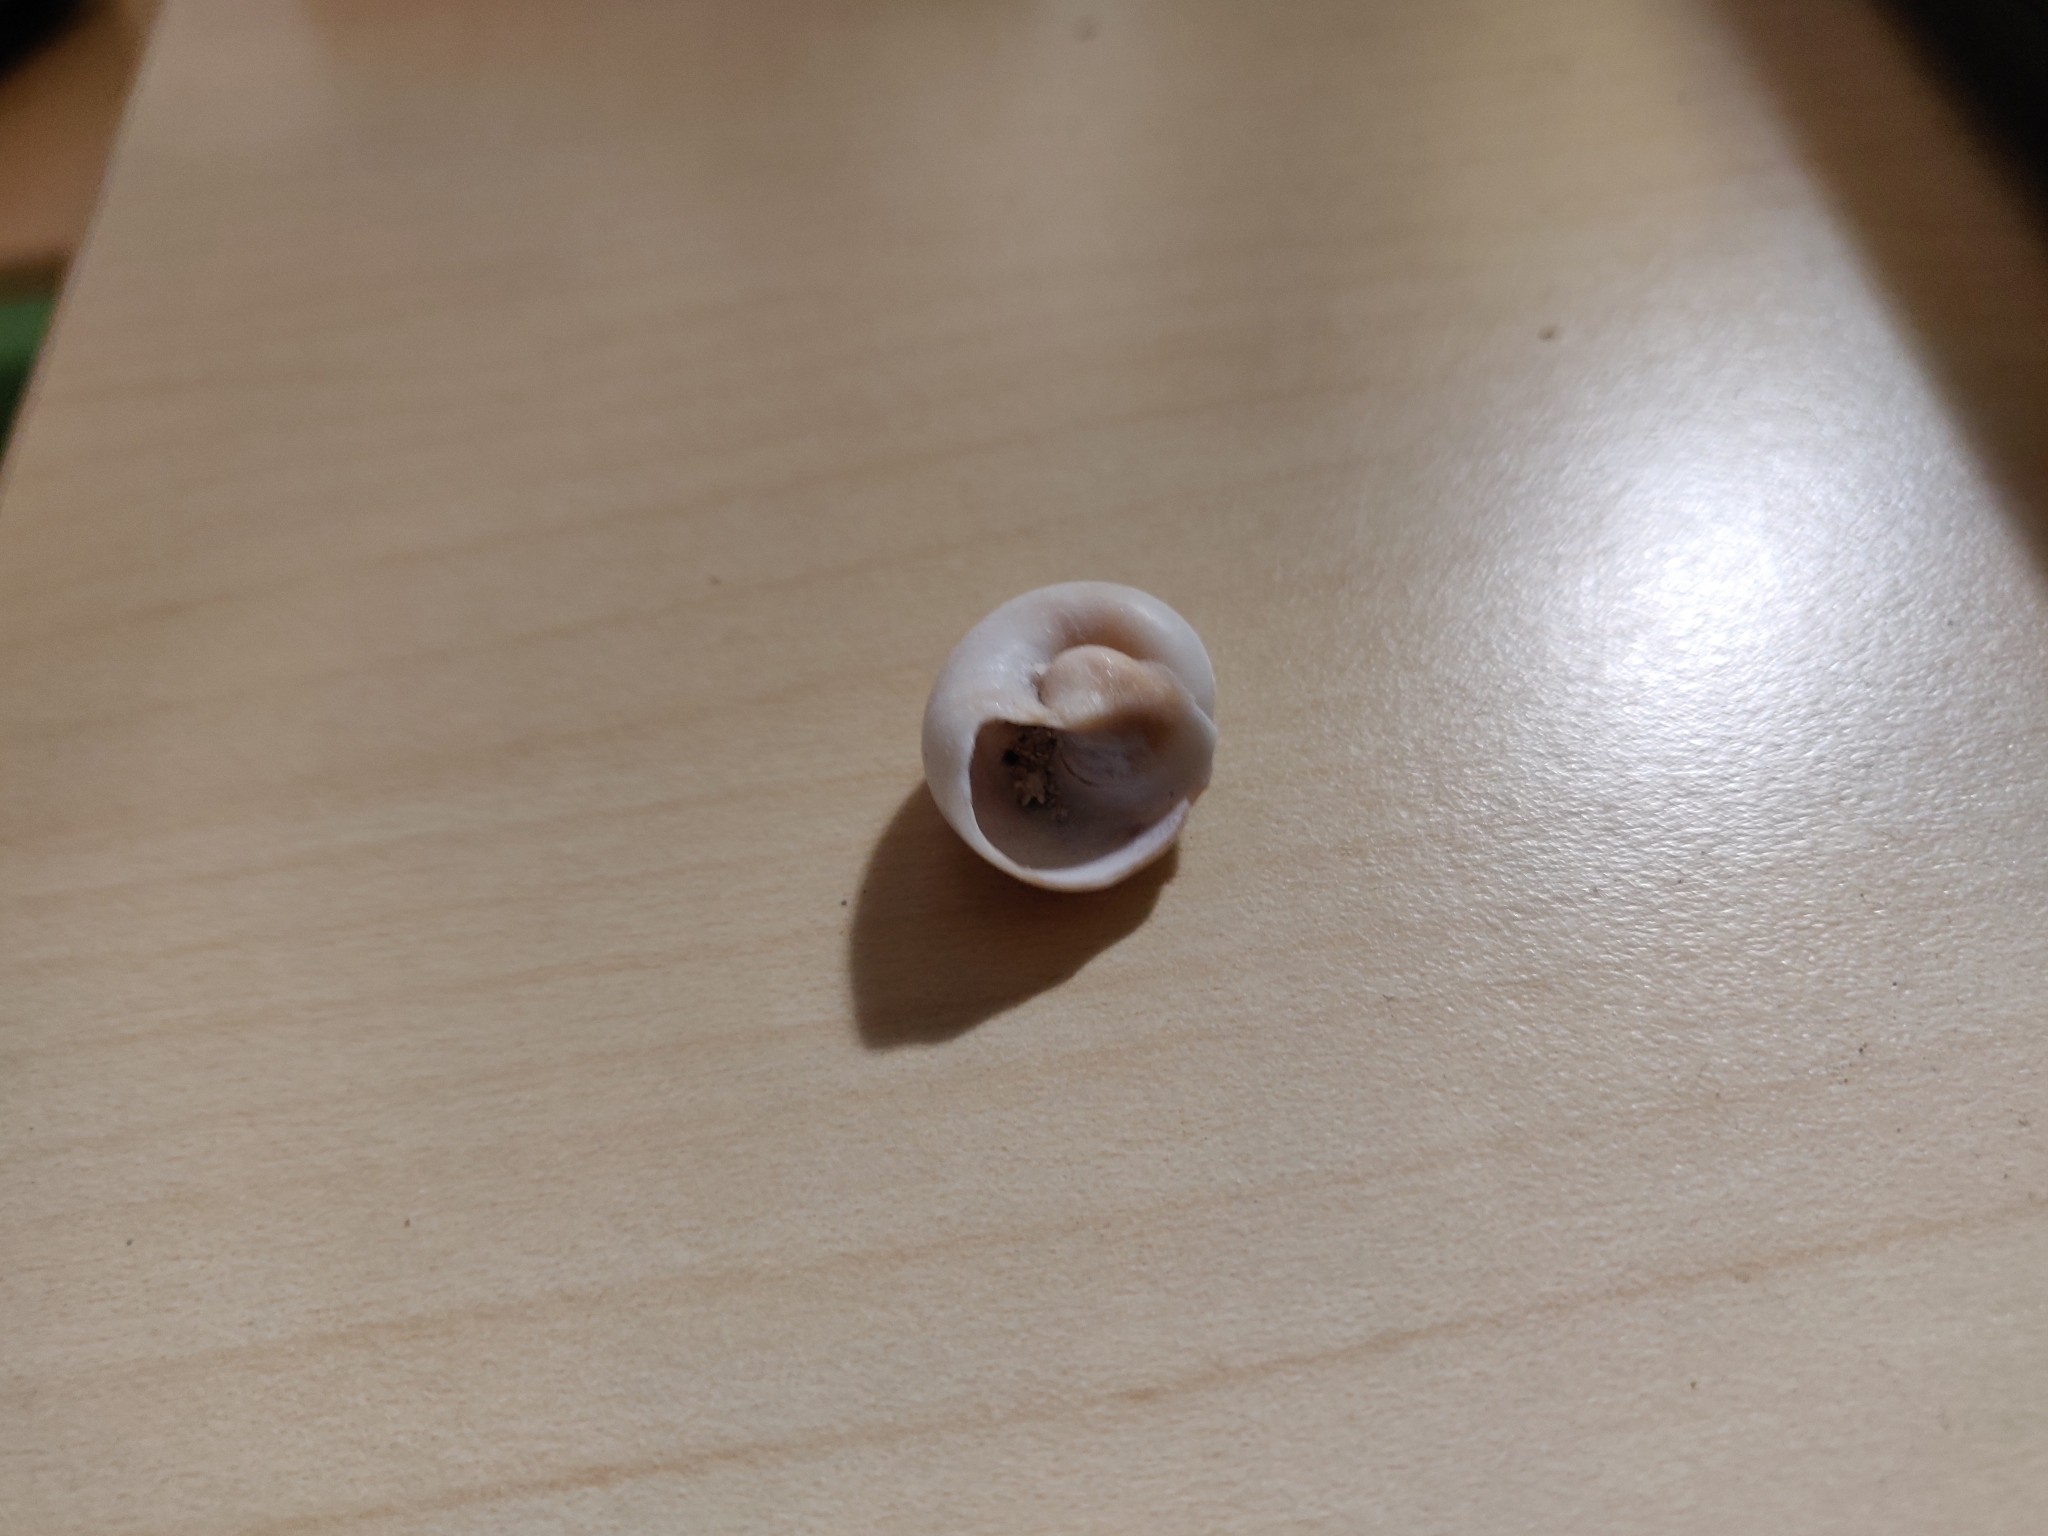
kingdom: Animalia
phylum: Mollusca
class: Gastropoda
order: Littorinimorpha
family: Naticidae
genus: Neverita
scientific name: Neverita josephinia
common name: Josephine's moonsnail
